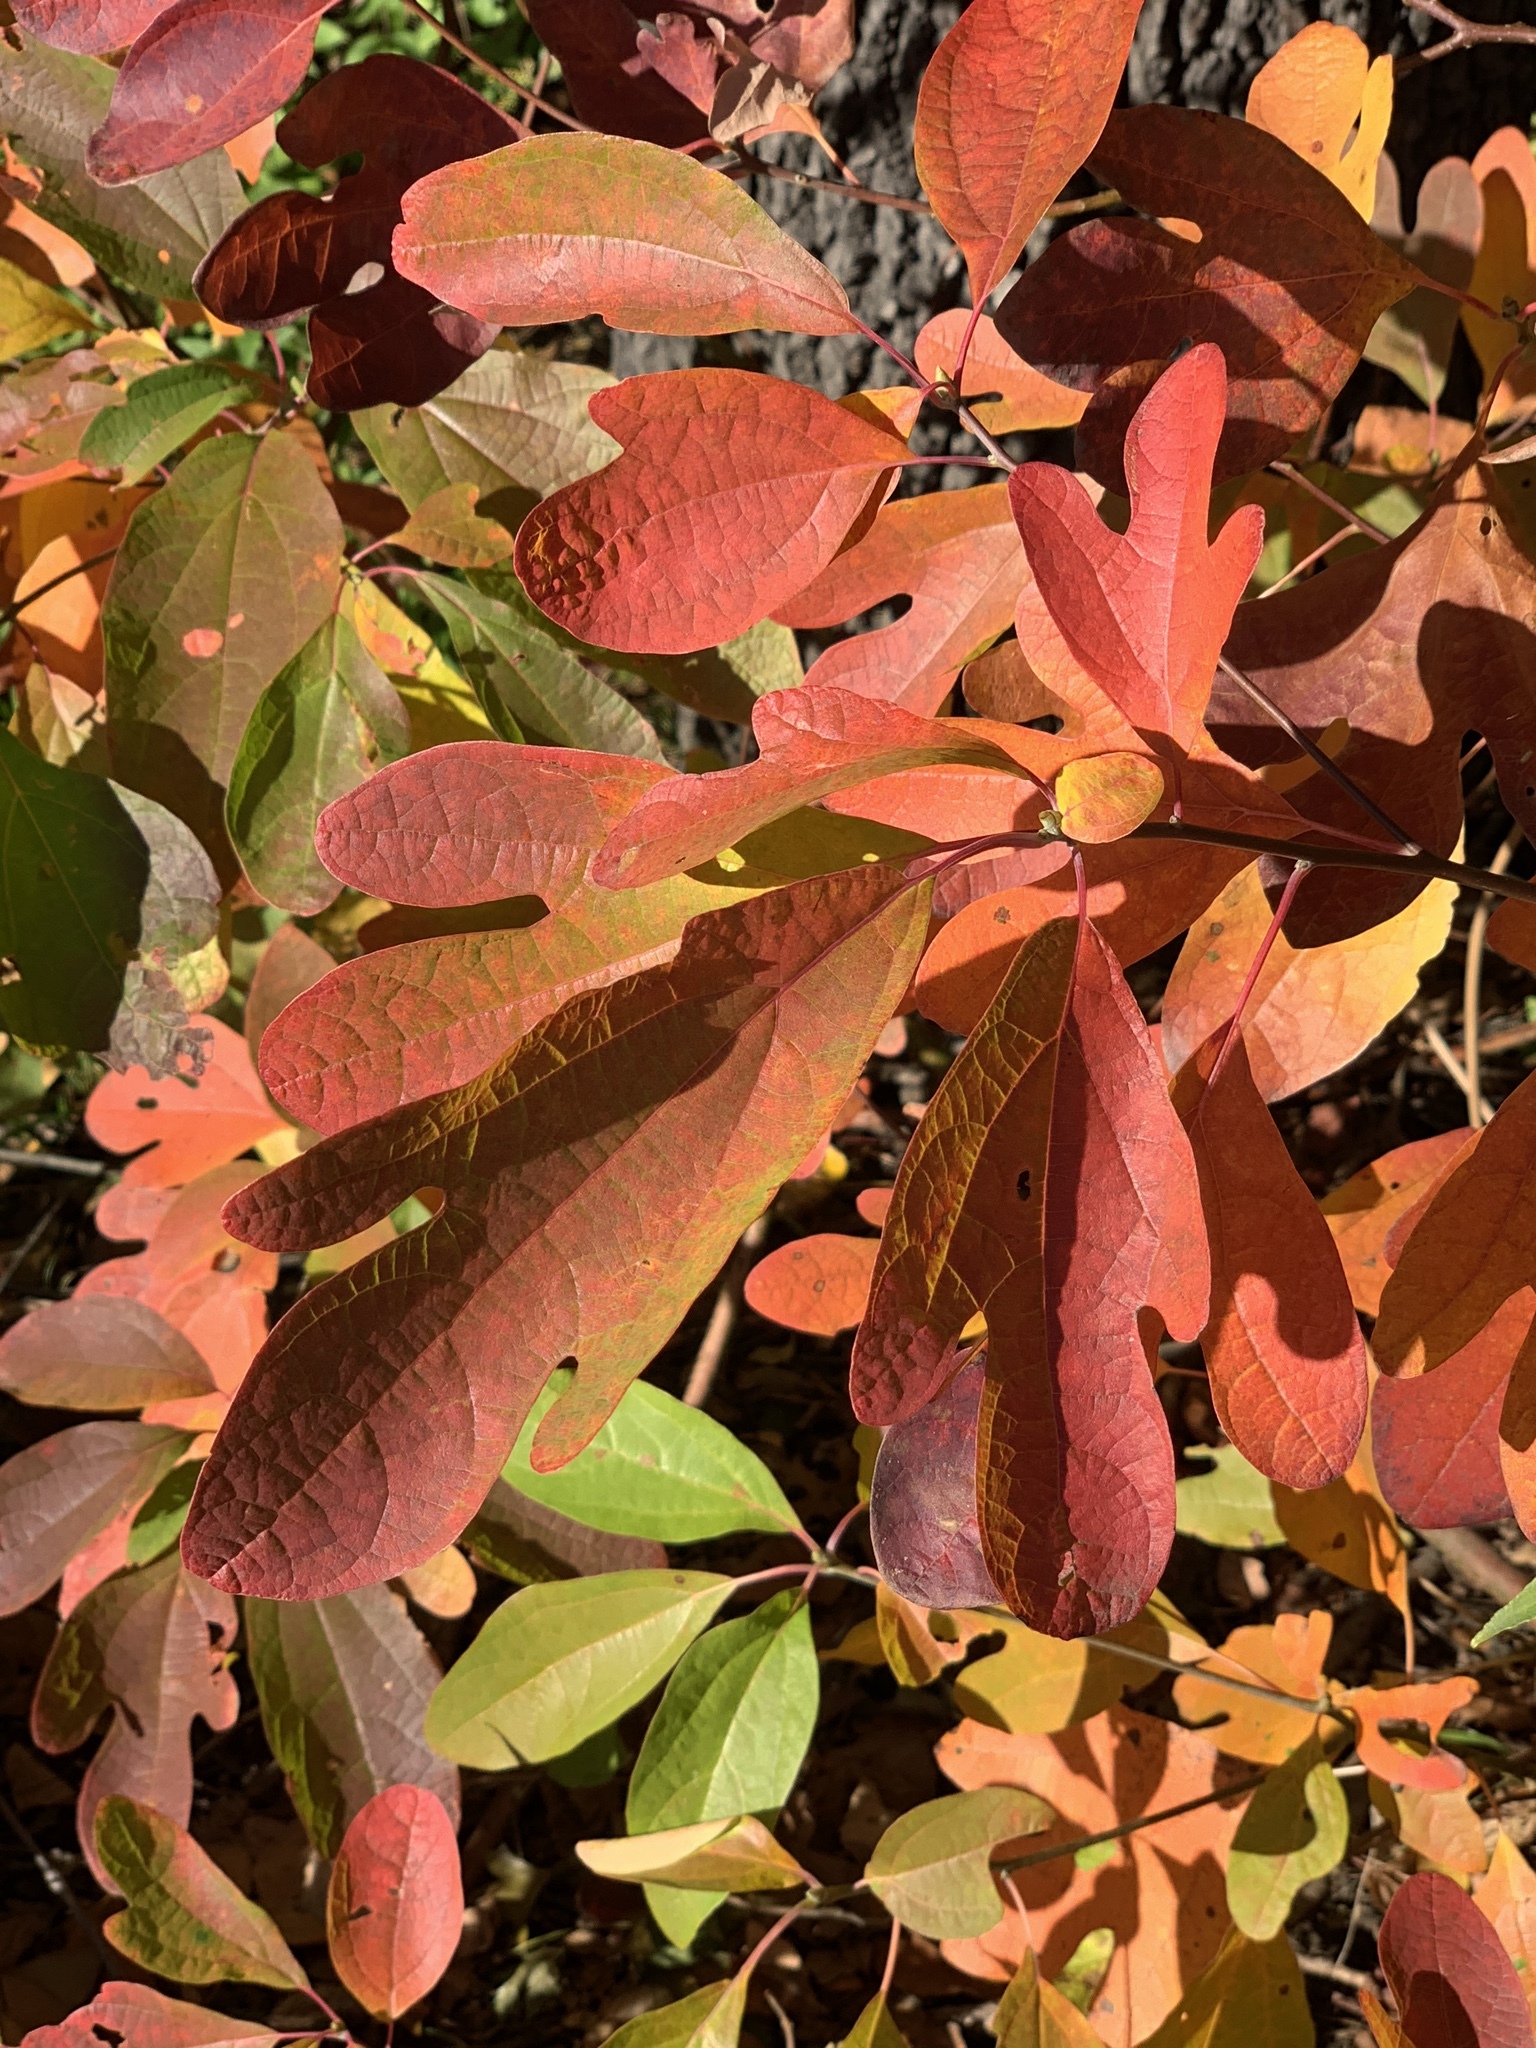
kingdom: Plantae
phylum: Tracheophyta
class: Magnoliopsida
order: Laurales
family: Lauraceae
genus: Sassafras
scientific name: Sassafras albidum
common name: Sassafras
